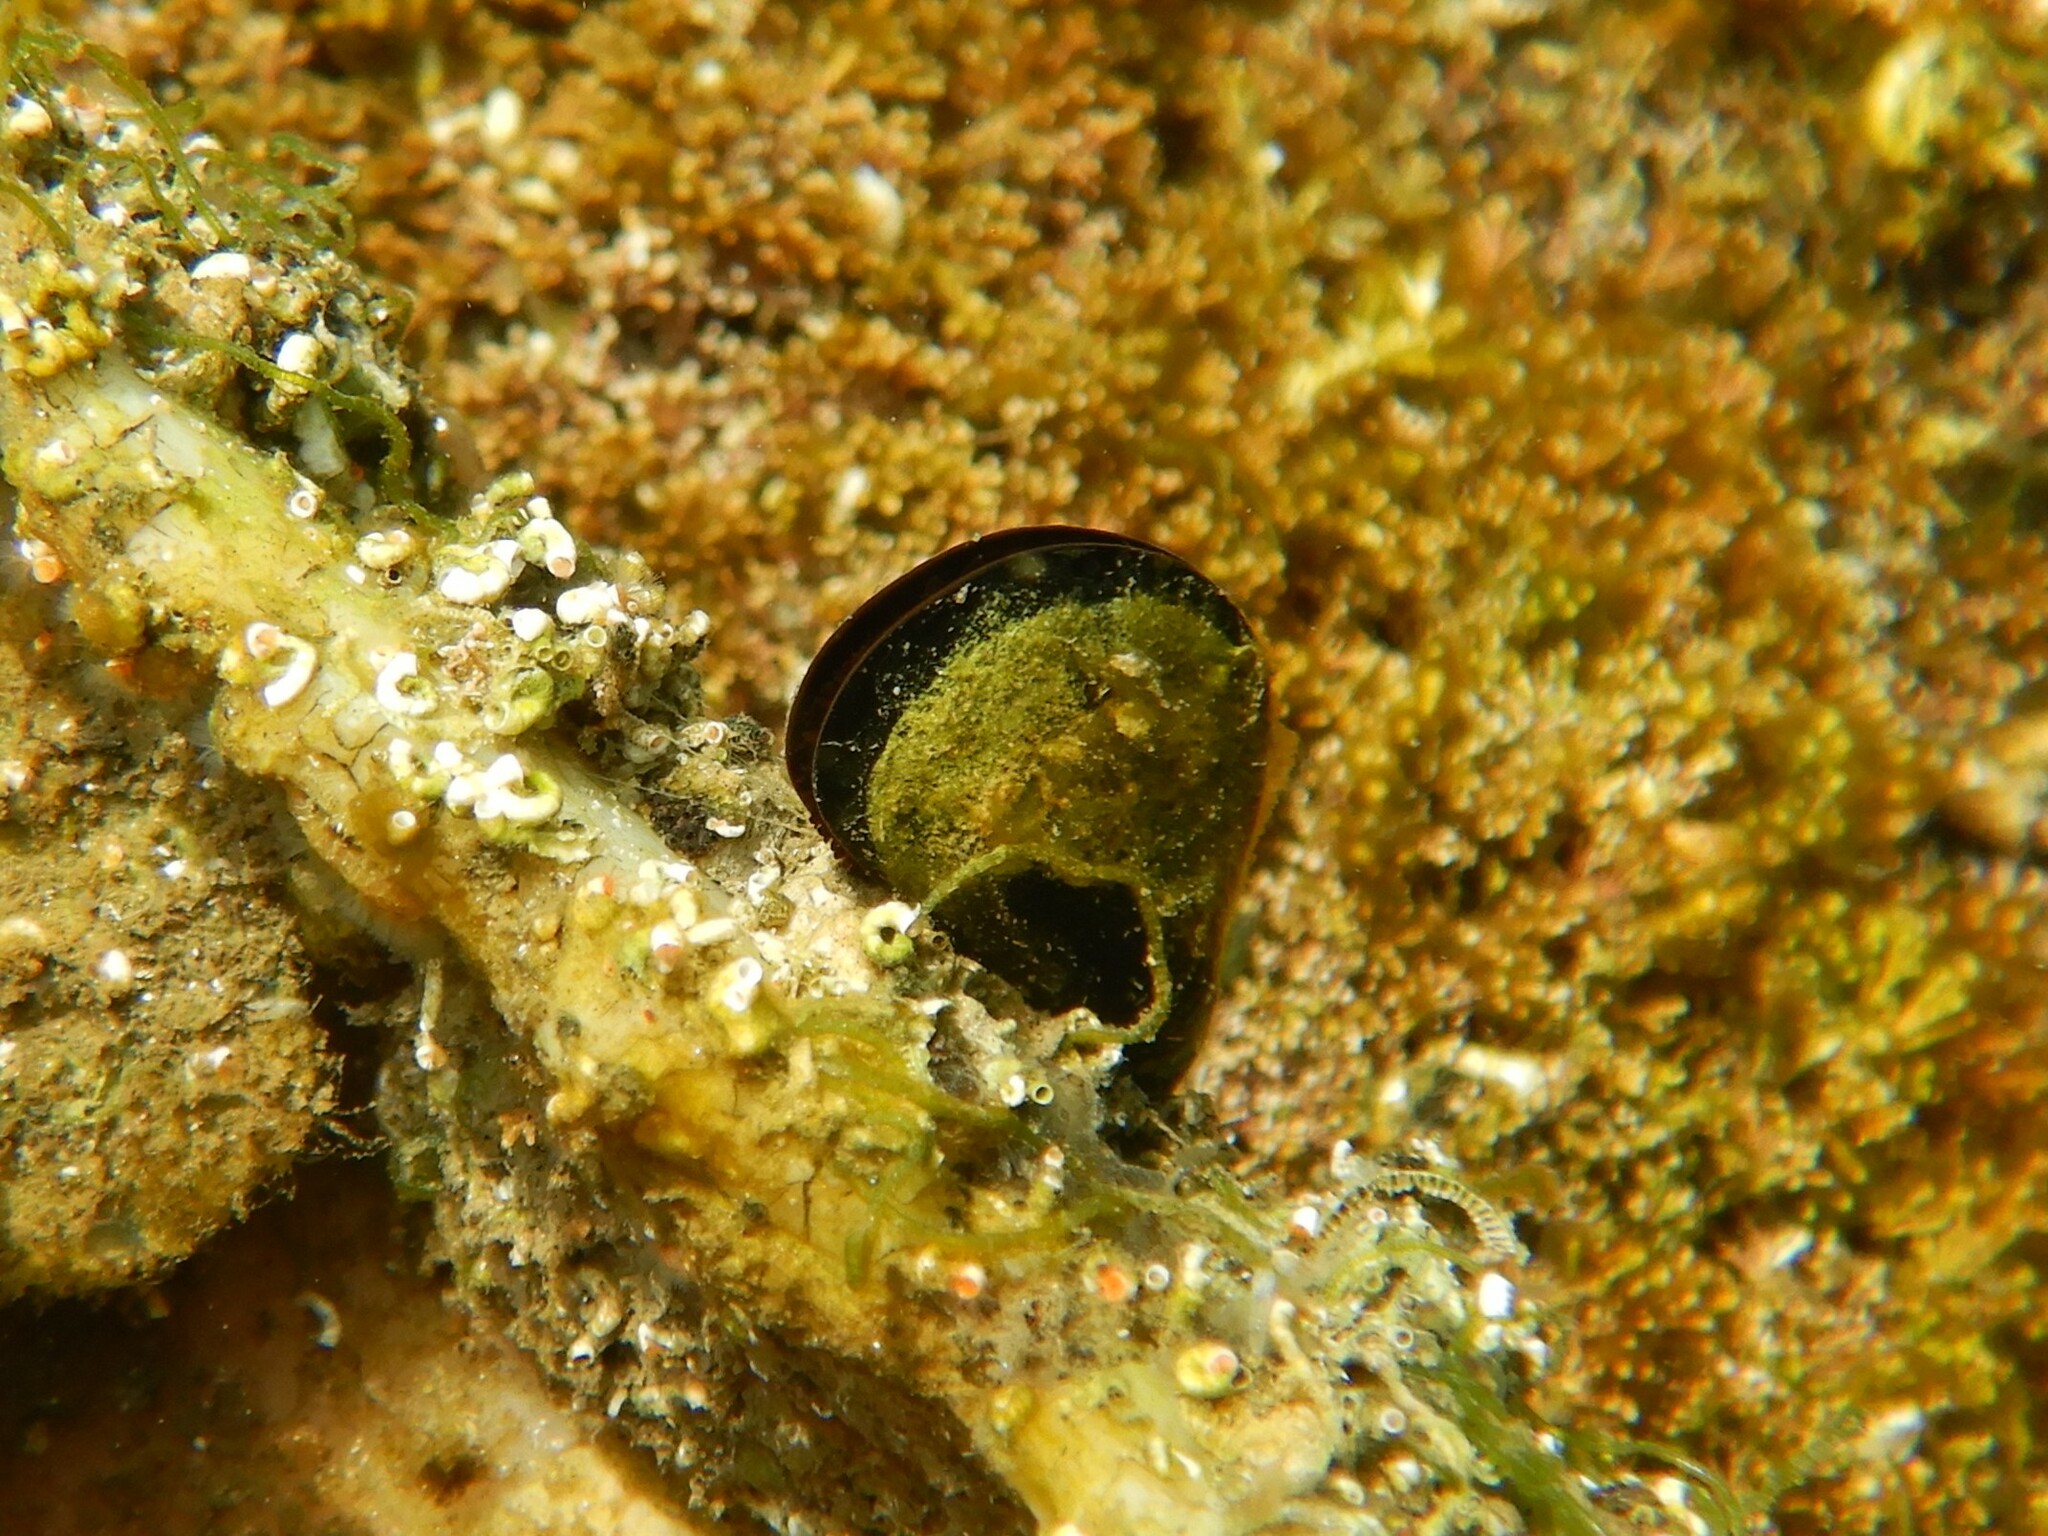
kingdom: Animalia
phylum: Mollusca
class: Bivalvia
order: Mytilida
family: Mytilidae
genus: Mytilus
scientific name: Mytilus galloprovincialis
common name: Mediterranean mussel
